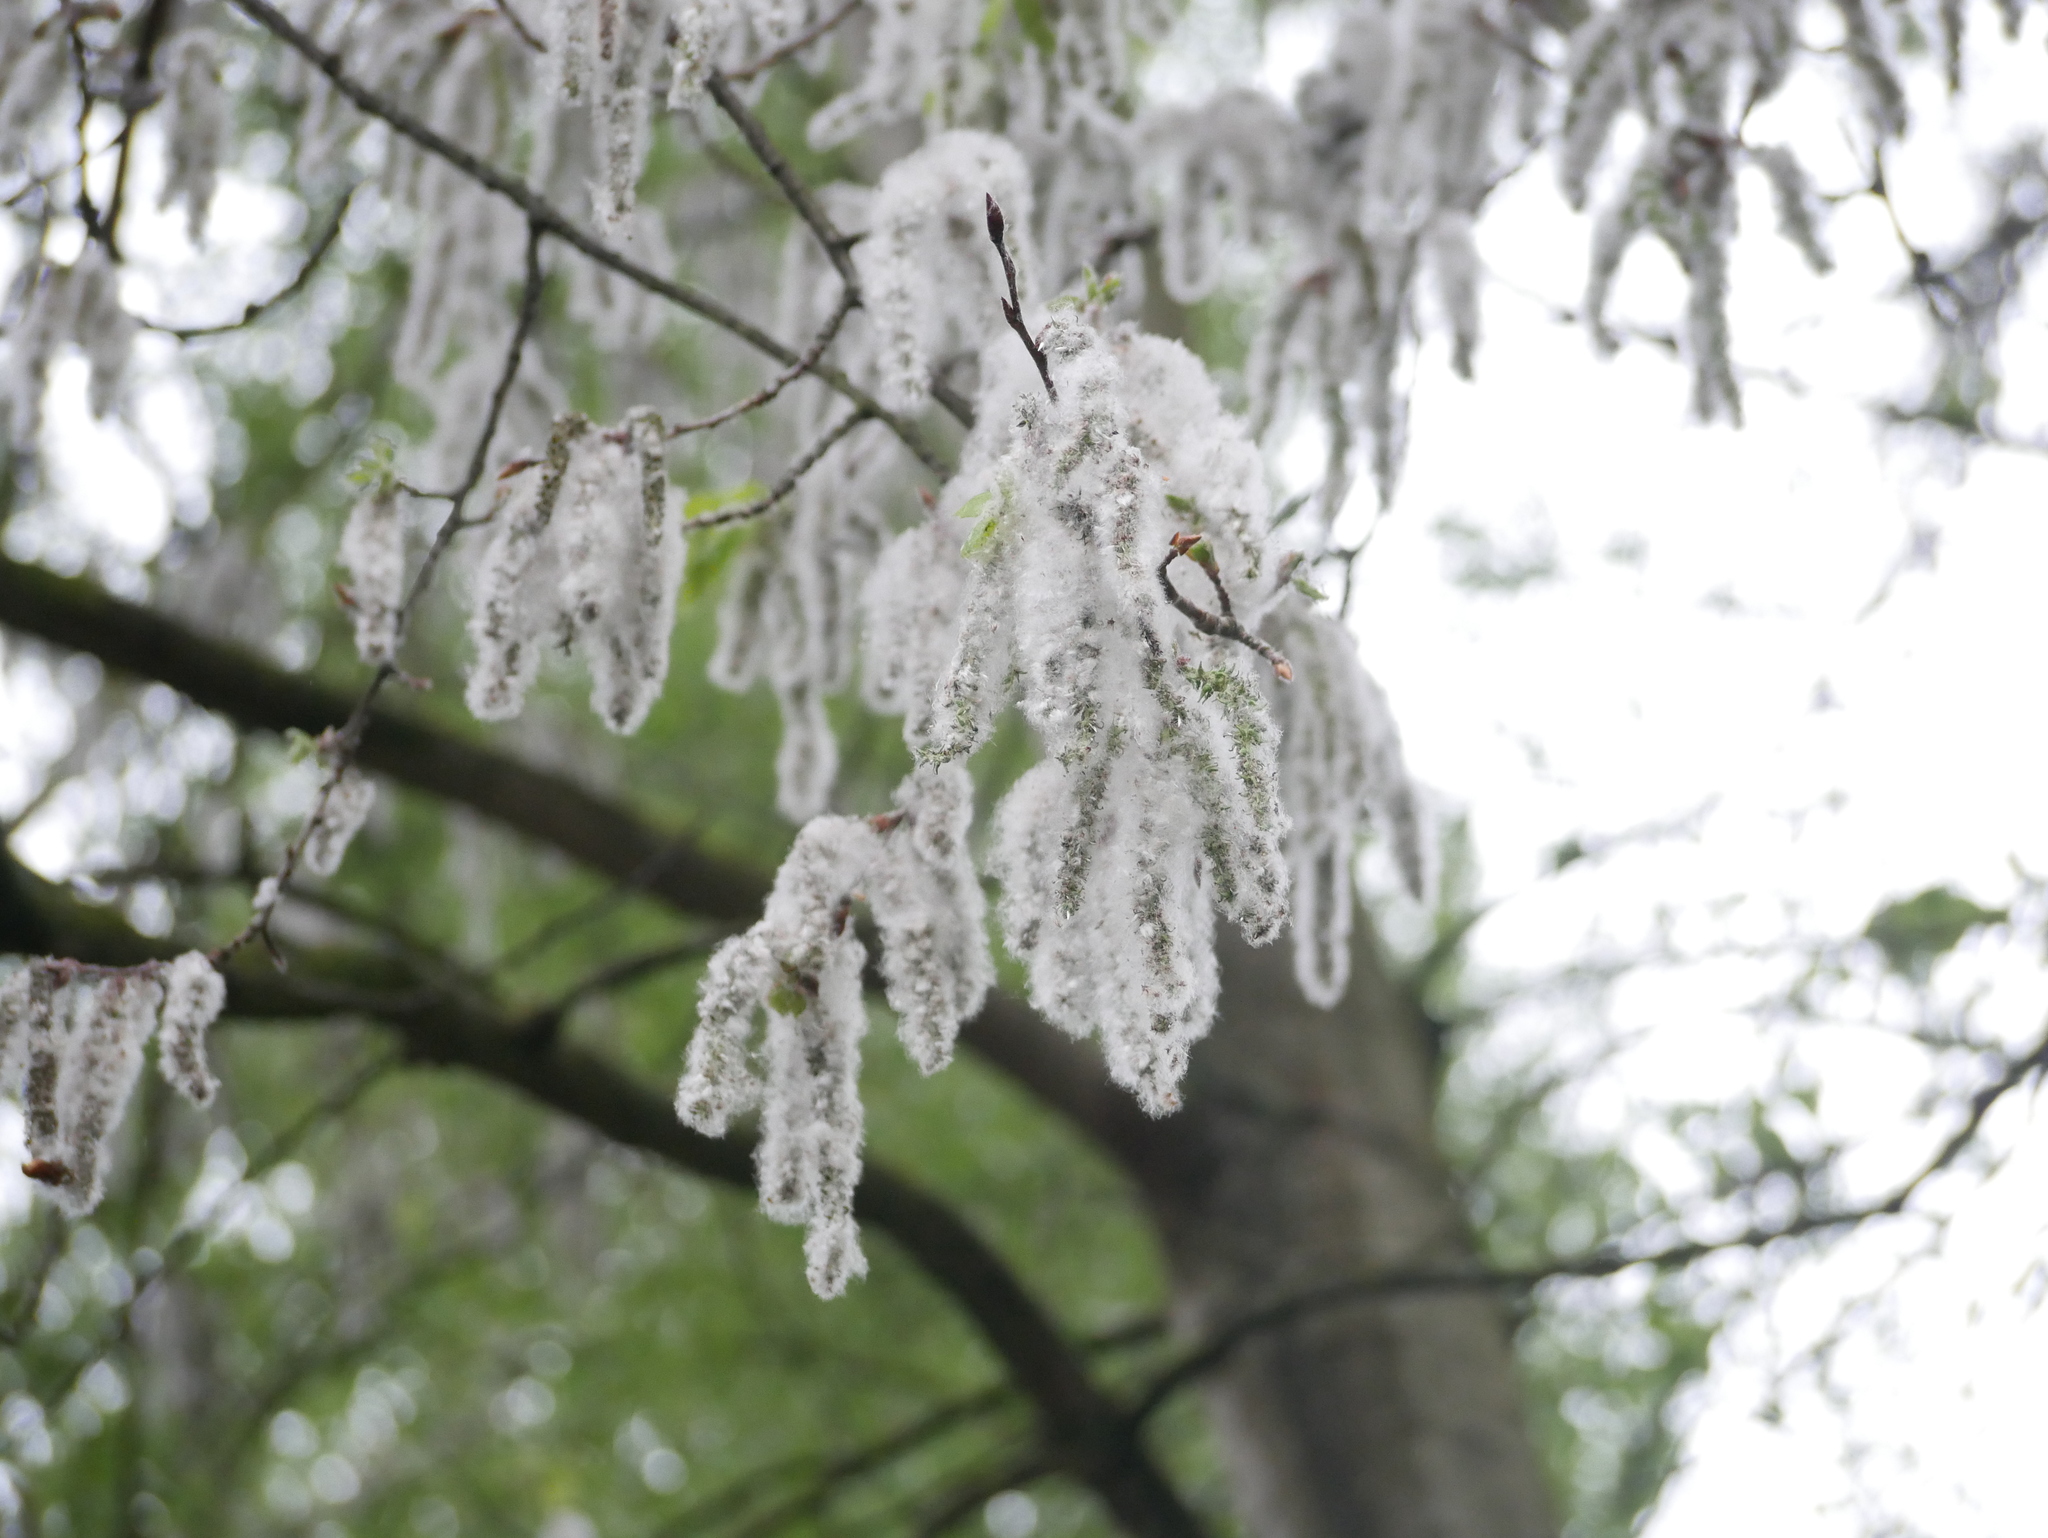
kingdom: Plantae
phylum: Tracheophyta
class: Magnoliopsida
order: Malpighiales
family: Salicaceae
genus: Populus
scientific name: Populus tremula
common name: European aspen
